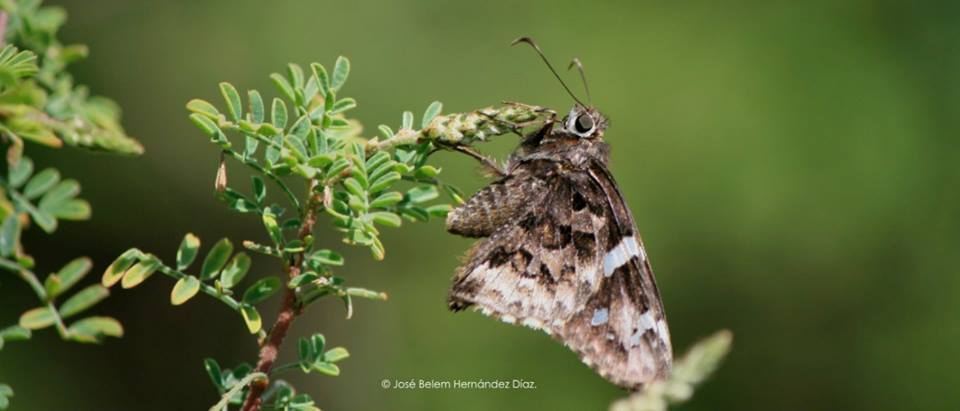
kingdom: Animalia
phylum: Arthropoda
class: Insecta
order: Lepidoptera
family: Hesperiidae
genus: Codatractus
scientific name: Codatractus bryaxis
